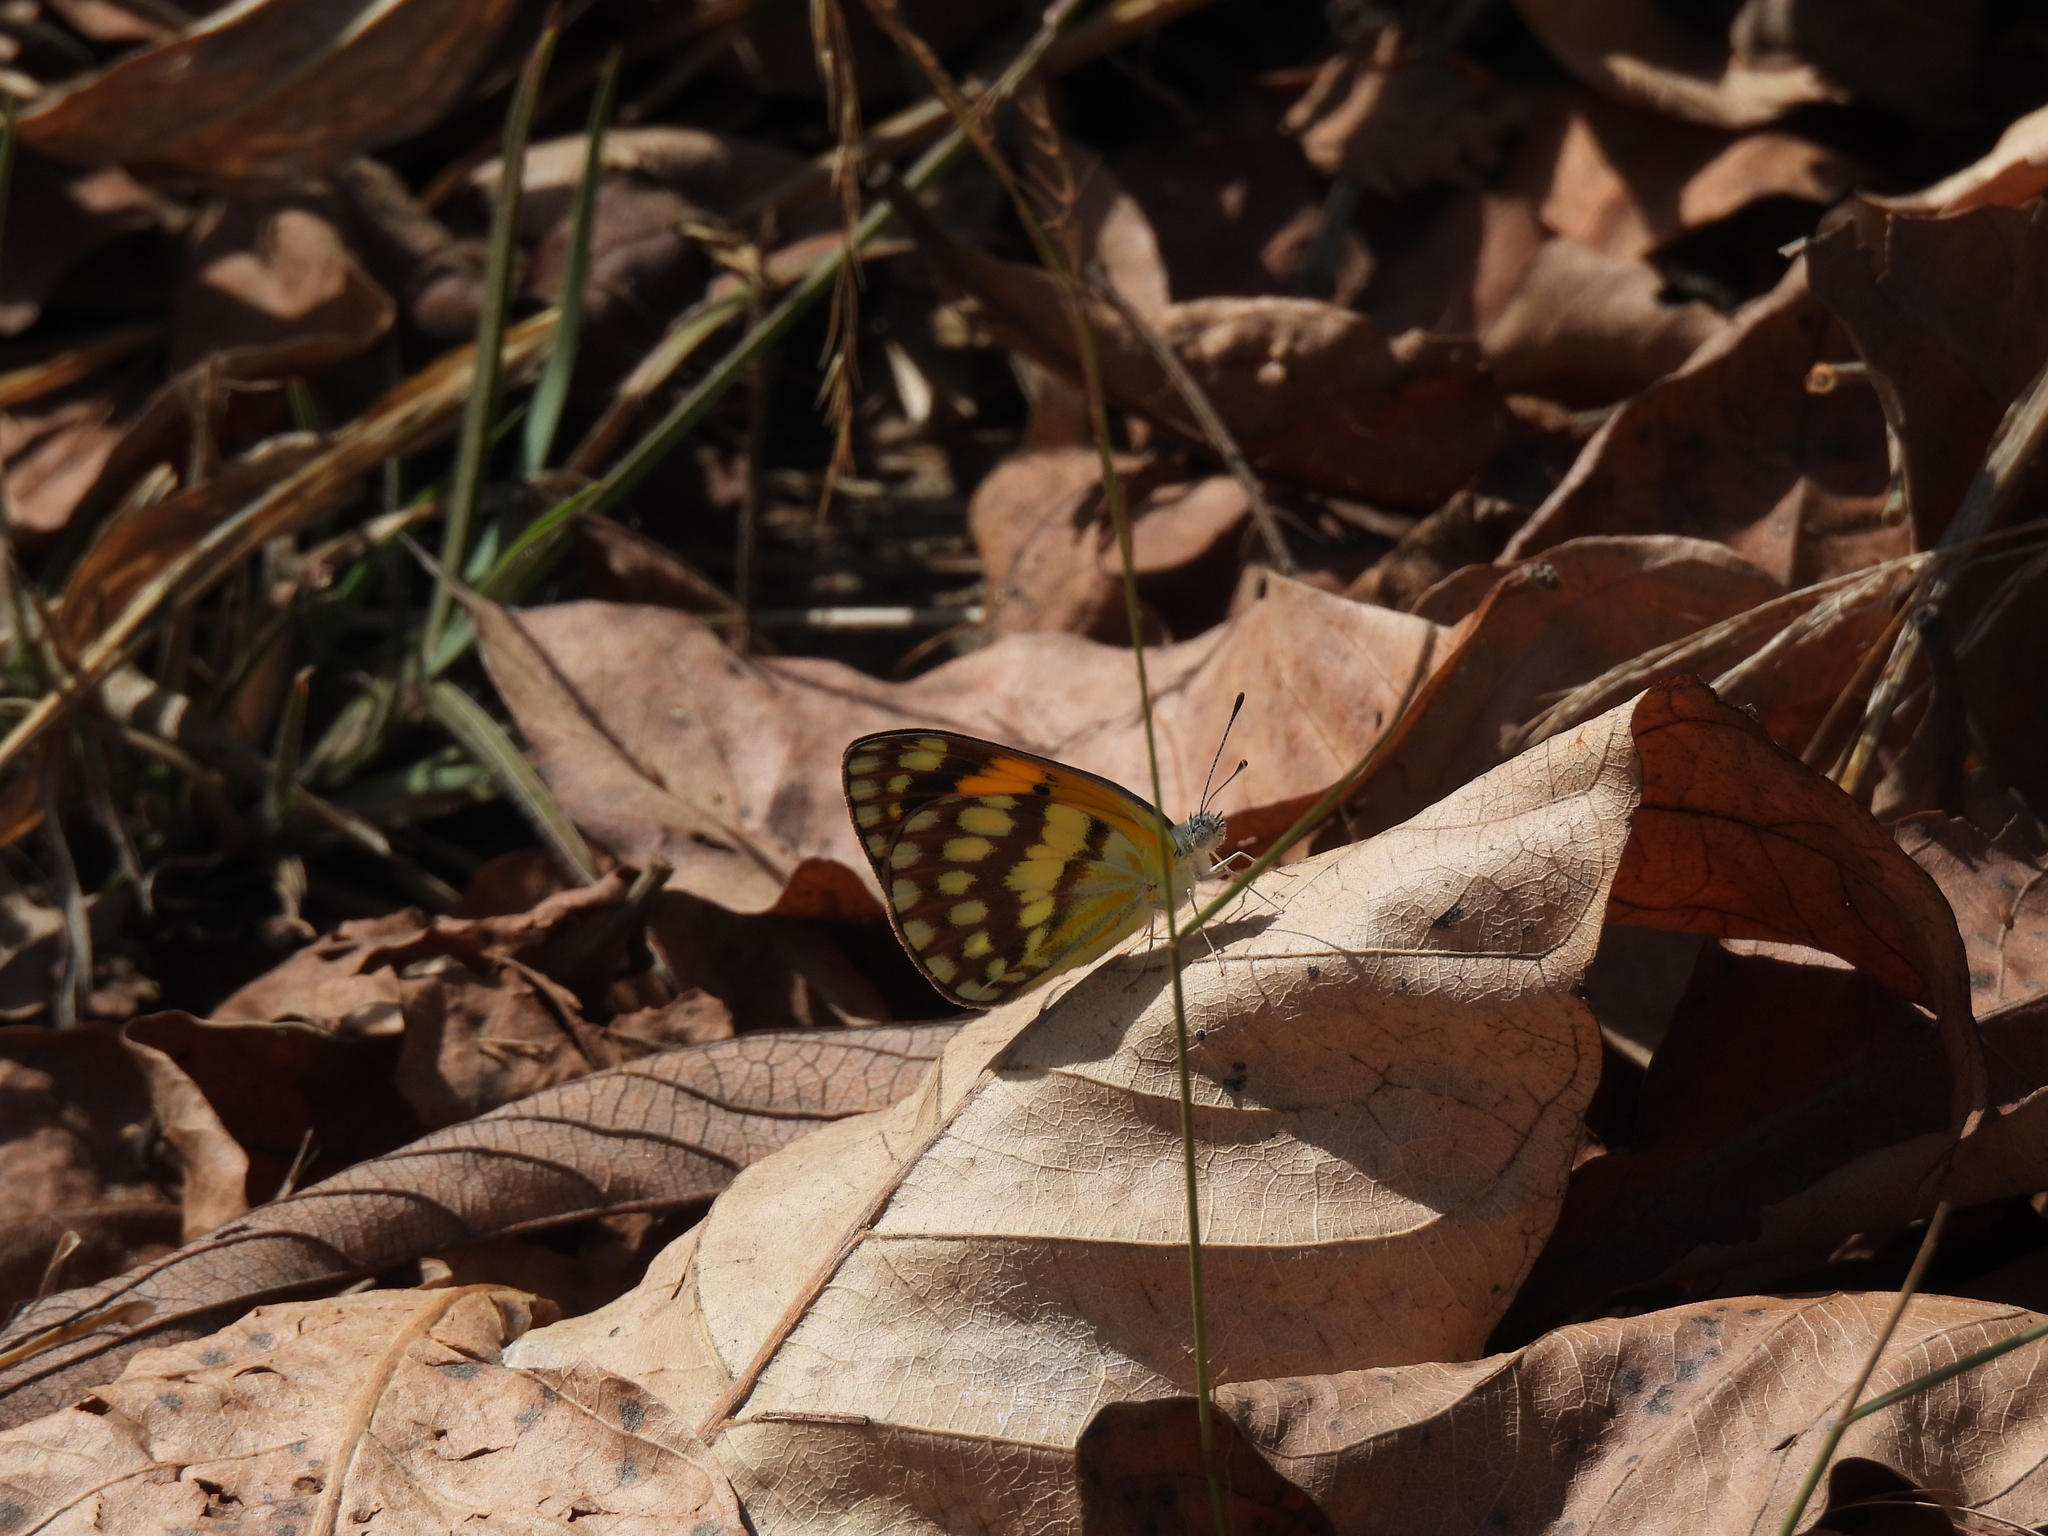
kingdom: Animalia
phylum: Arthropoda
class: Insecta
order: Lepidoptera
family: Pieridae
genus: Colotis
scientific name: Colotis vesta
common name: Veined golden arab
